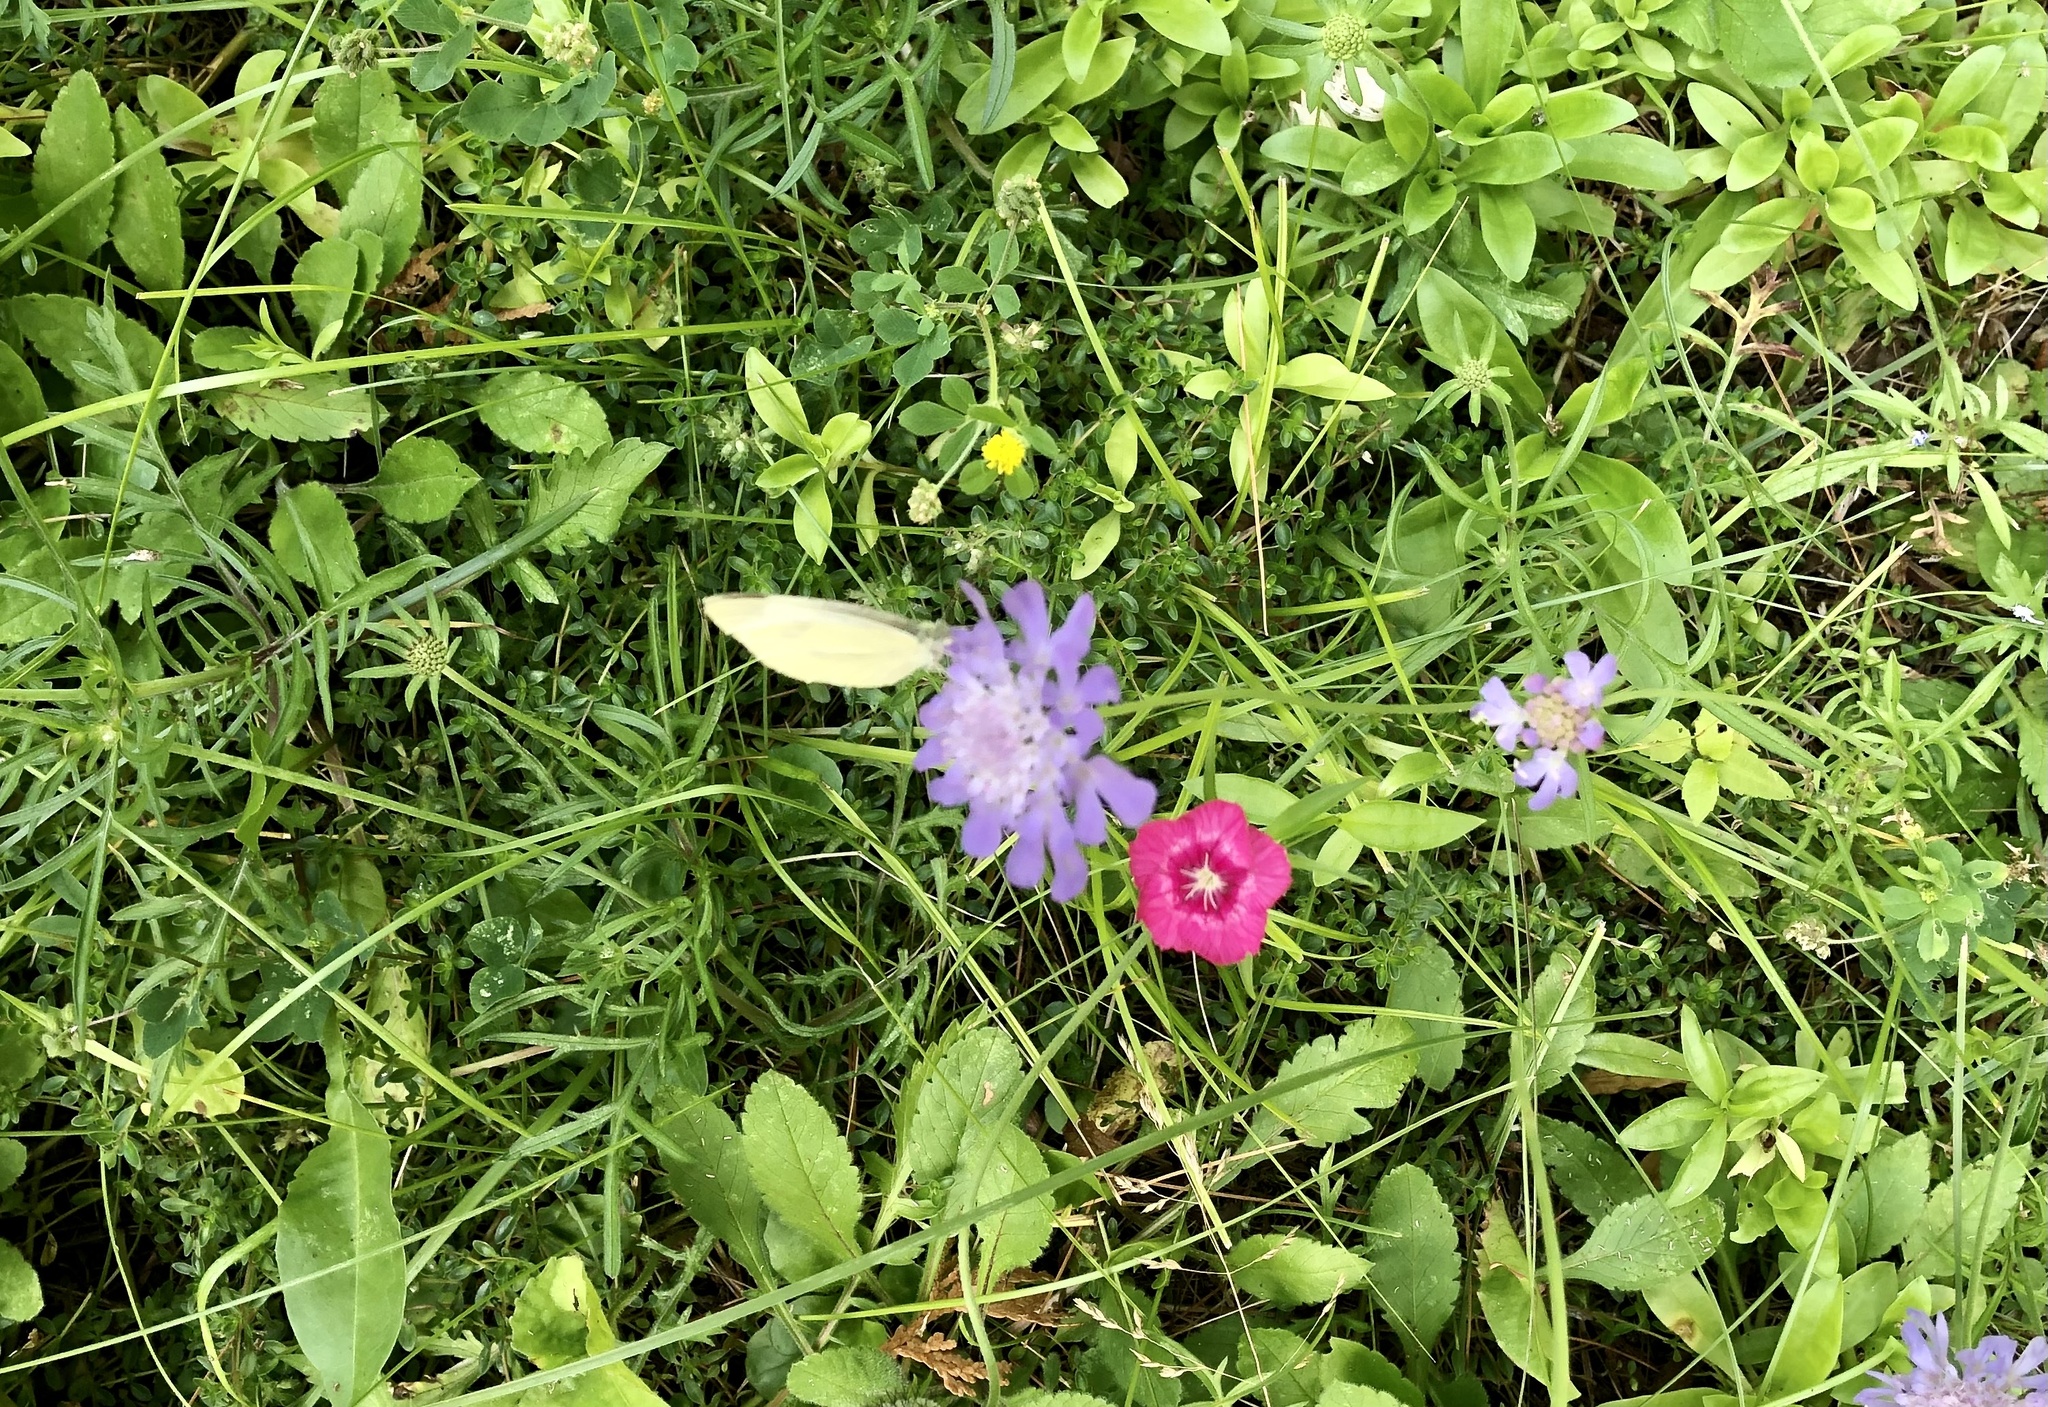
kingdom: Animalia
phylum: Arthropoda
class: Insecta
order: Lepidoptera
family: Pieridae
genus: Pieris
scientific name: Pieris rapae
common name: Small white
